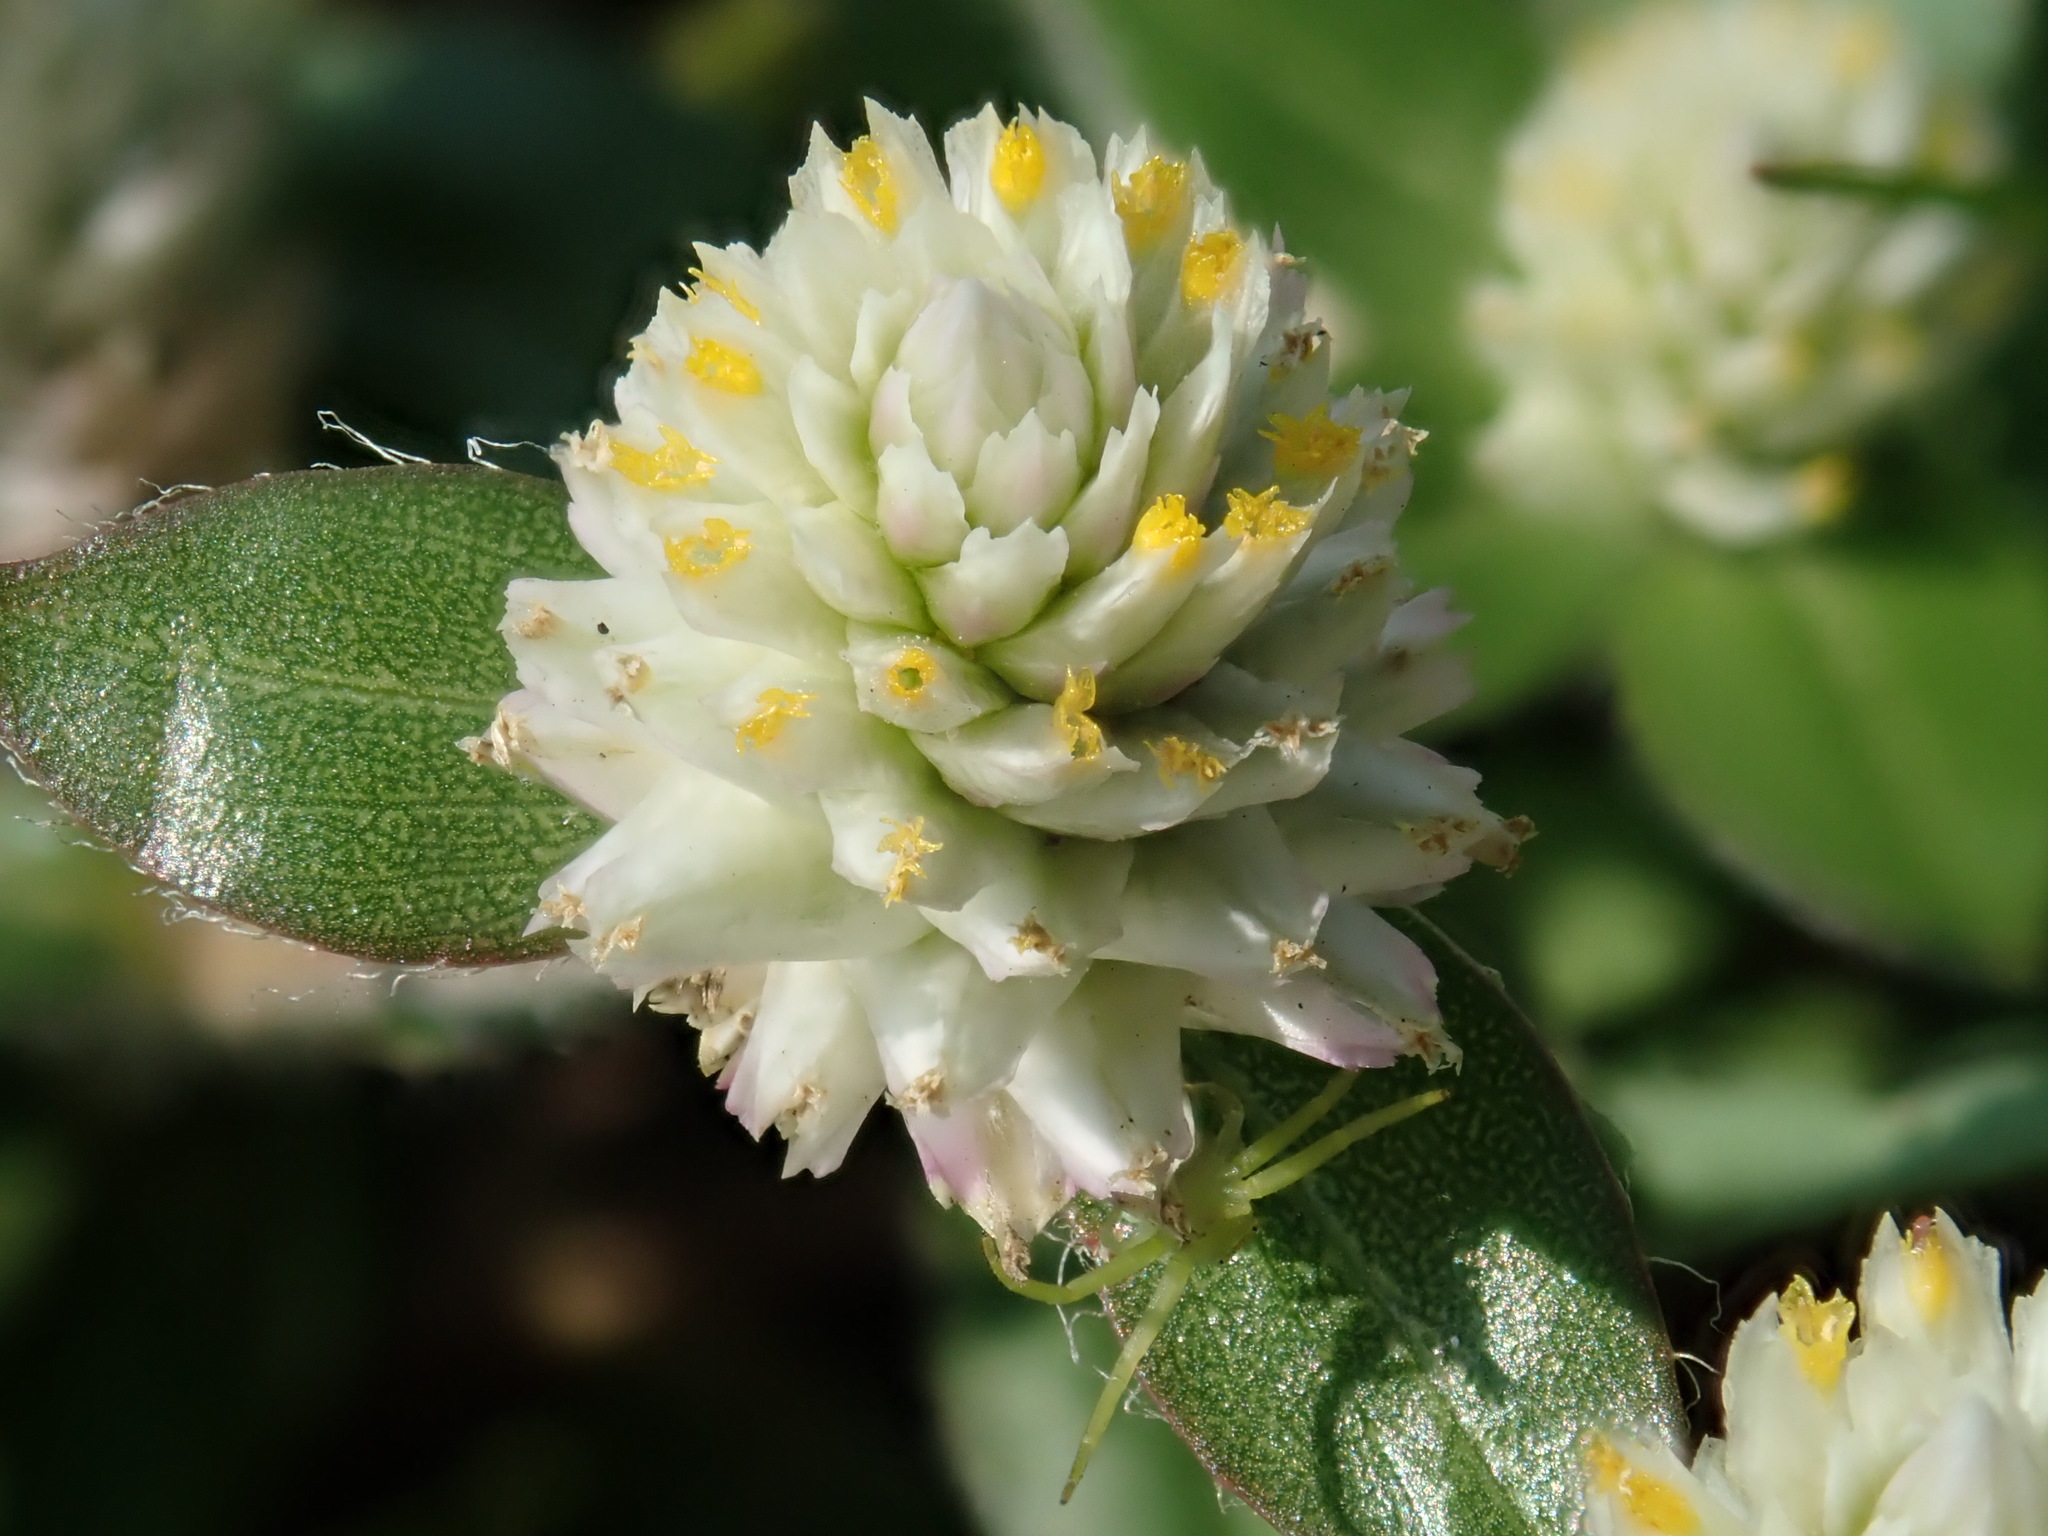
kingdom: Plantae
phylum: Tracheophyta
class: Magnoliopsida
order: Caryophyllales
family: Amaranthaceae
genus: Gomphrena
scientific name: Gomphrena celosioides
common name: Gomphrena-weed
